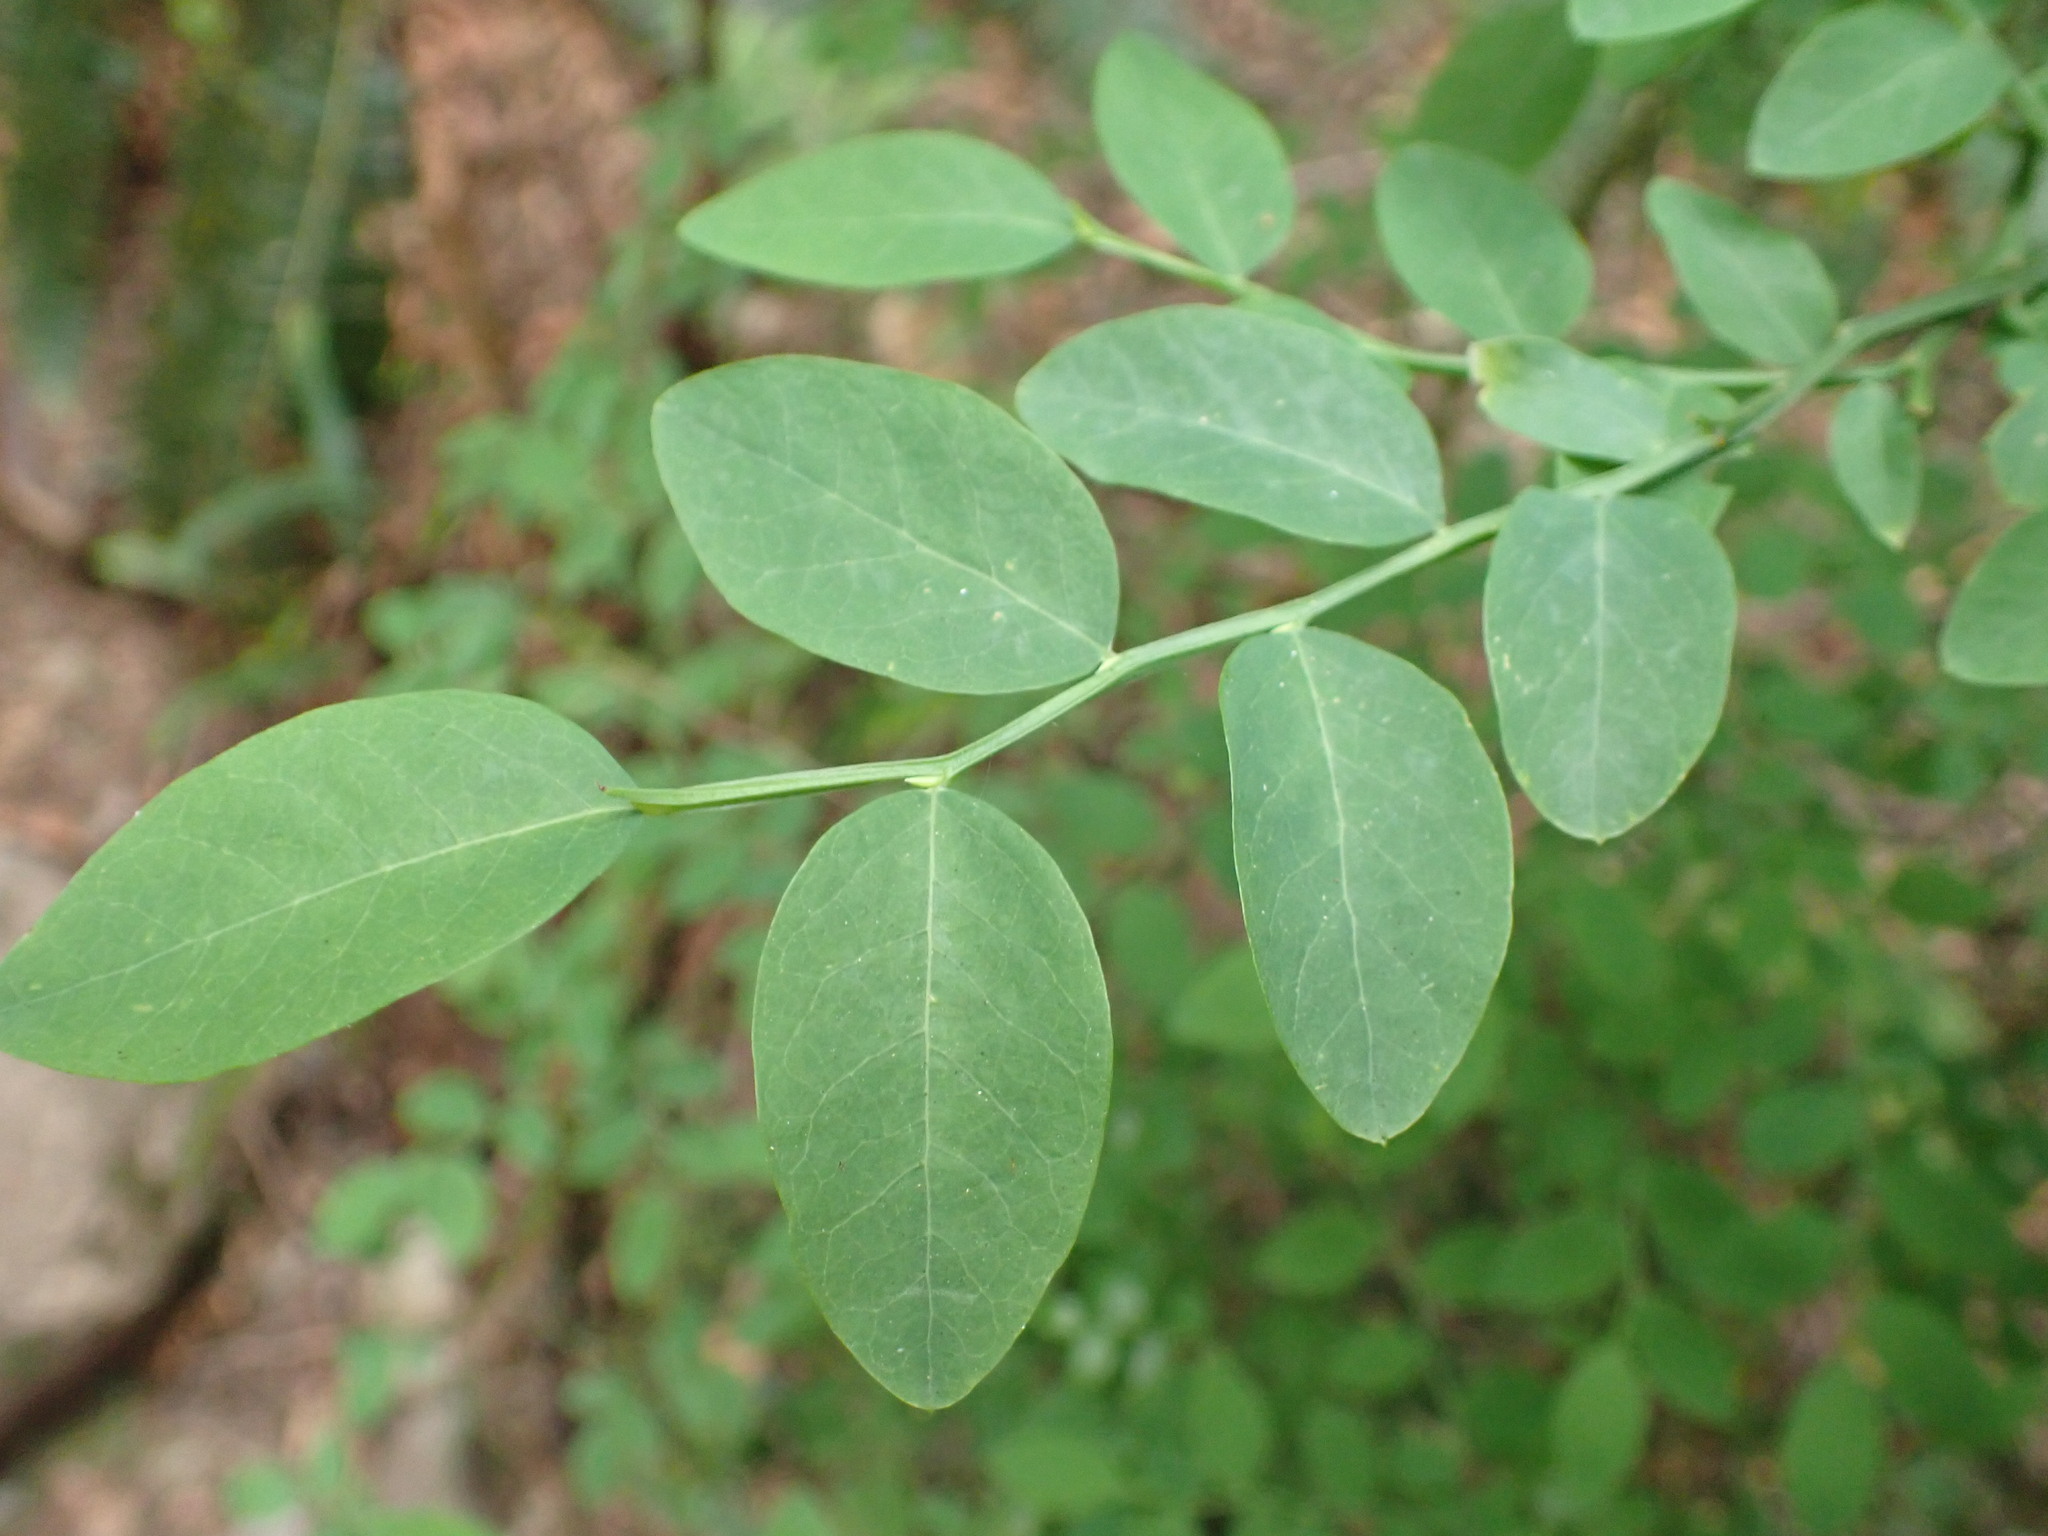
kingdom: Plantae
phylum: Tracheophyta
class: Magnoliopsida
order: Ericales
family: Ericaceae
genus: Vaccinium
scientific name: Vaccinium parvifolium
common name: Red-huckleberry
